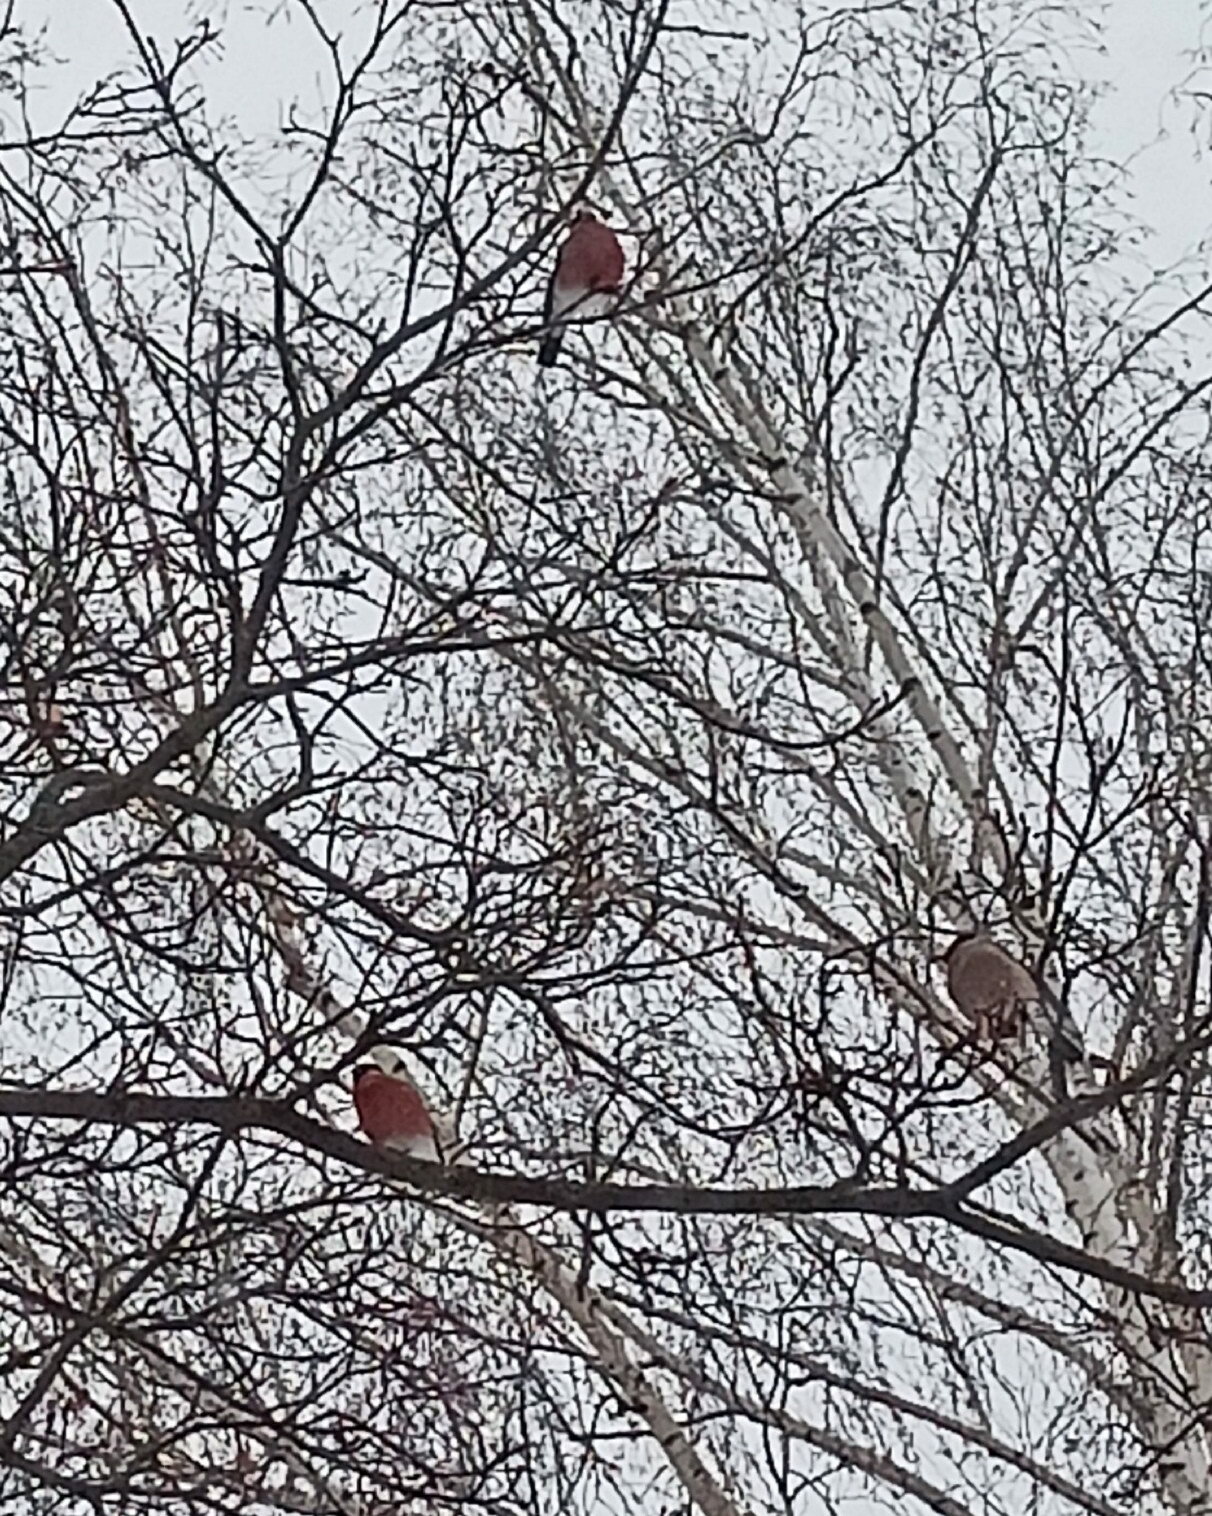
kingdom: Animalia
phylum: Chordata
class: Aves
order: Passeriformes
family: Fringillidae
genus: Pyrrhula
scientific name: Pyrrhula pyrrhula
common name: Eurasian bullfinch
